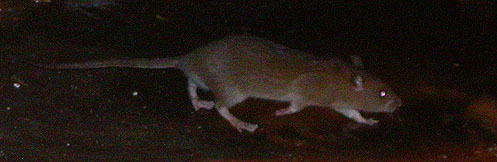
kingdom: Animalia
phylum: Chordata
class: Mammalia
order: Rodentia
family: Muridae
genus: Rattus
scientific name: Rattus norvegicus
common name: Brown rat
